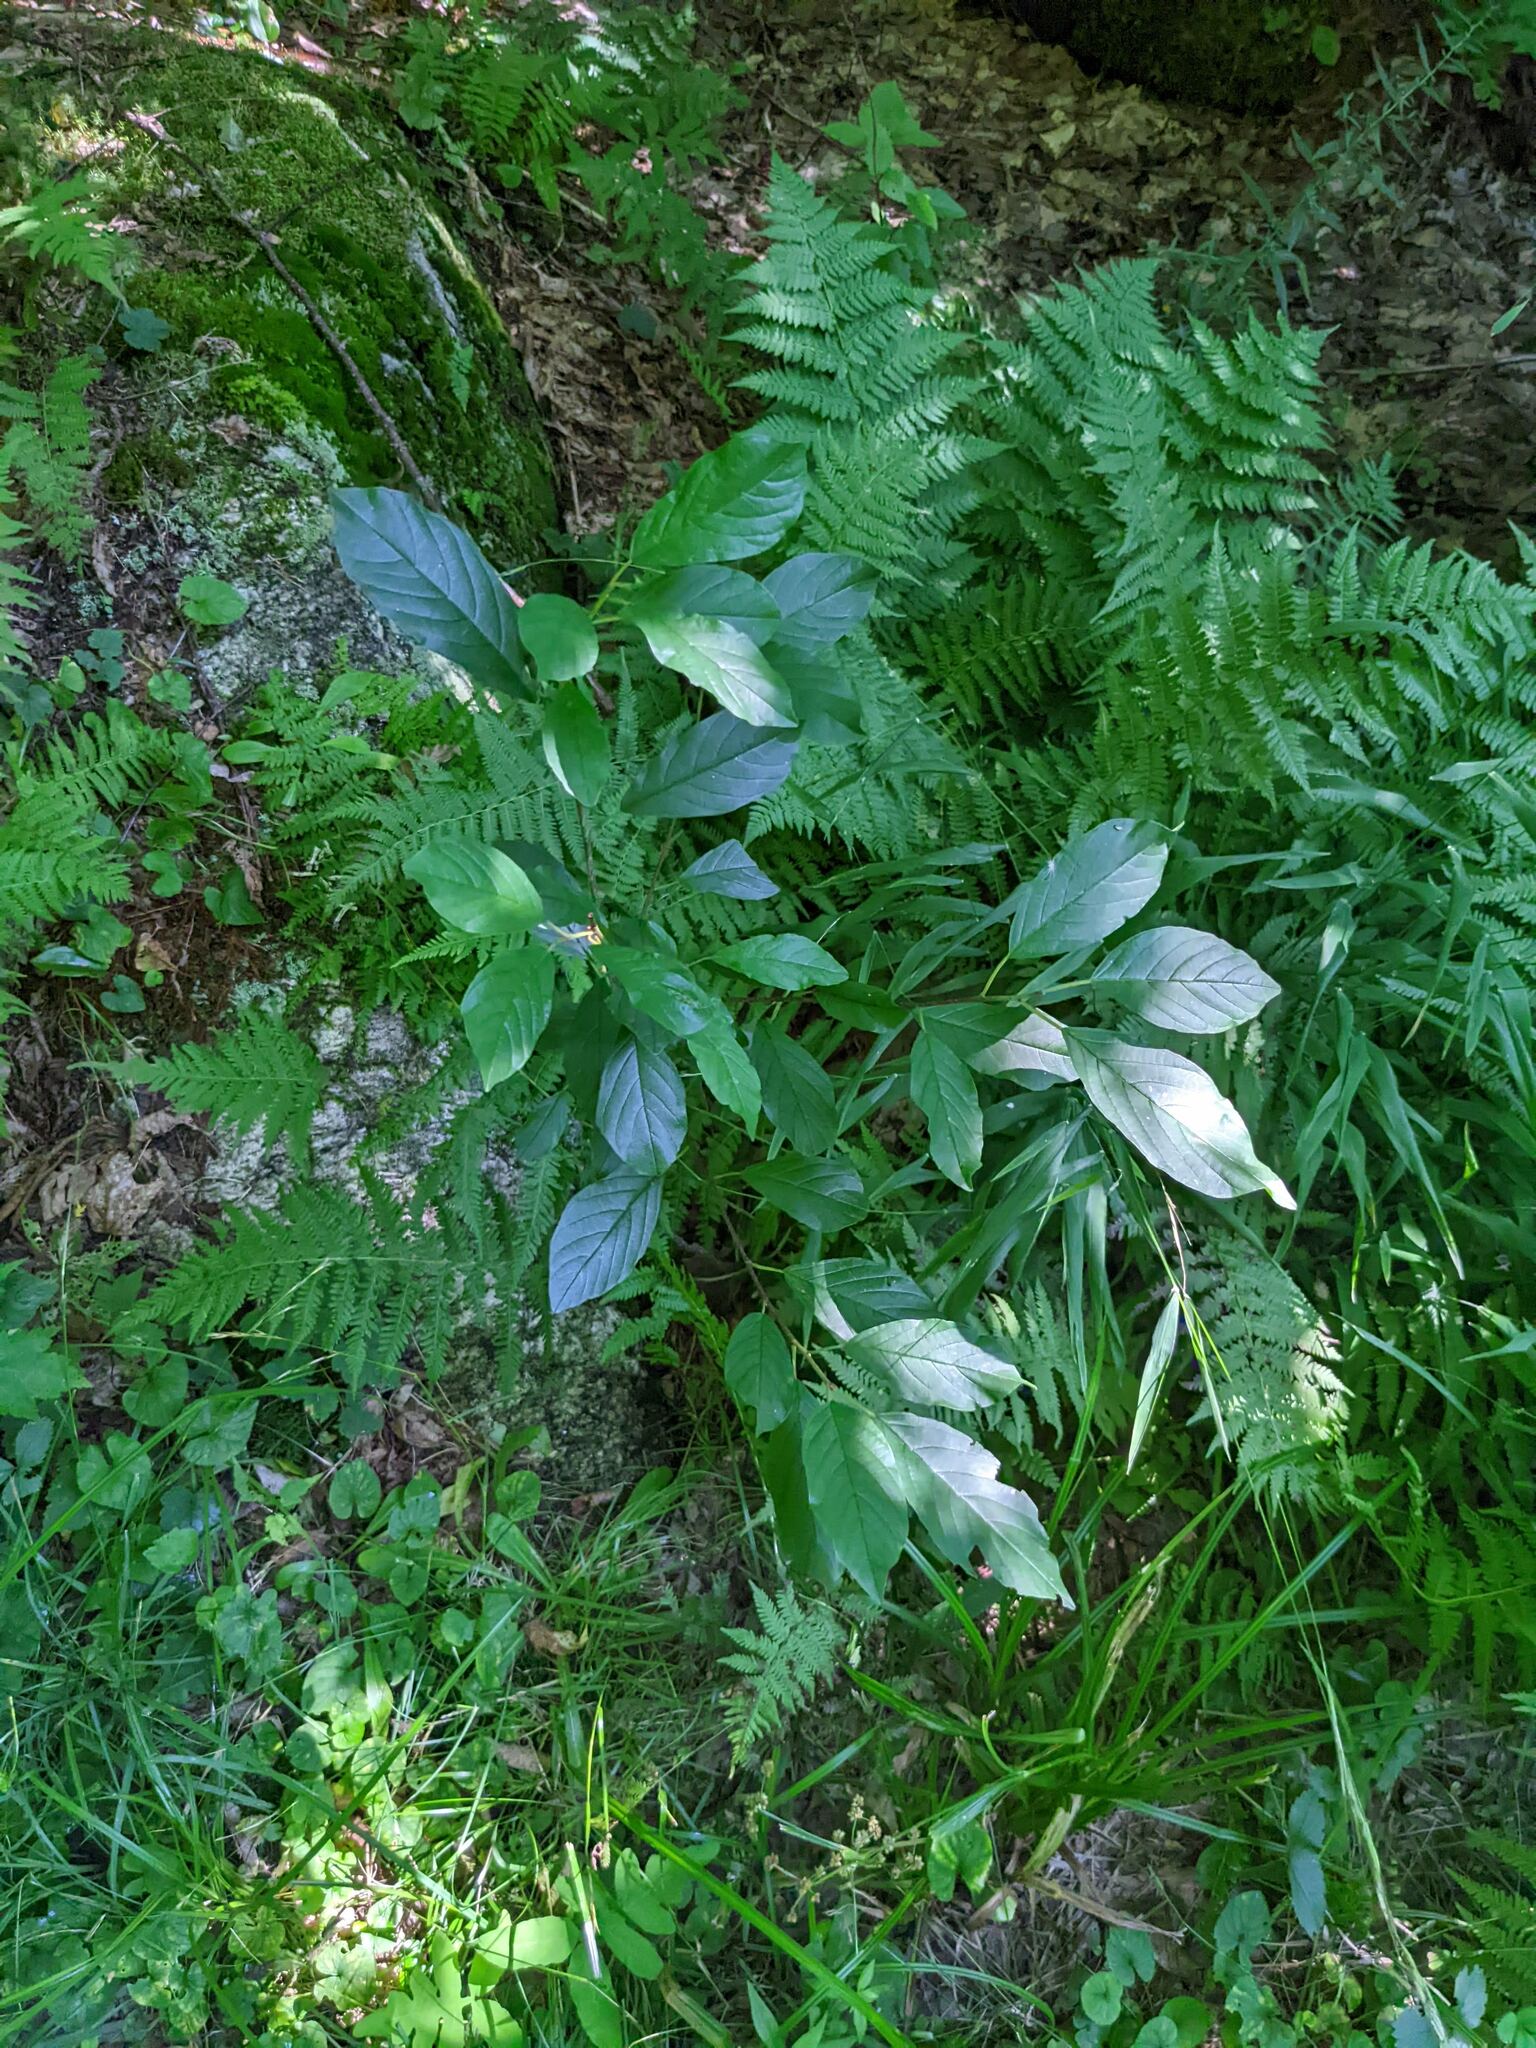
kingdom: Plantae
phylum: Tracheophyta
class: Magnoliopsida
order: Rosales
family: Rhamnaceae
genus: Frangula
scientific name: Frangula alnus
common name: Alder buckthorn
